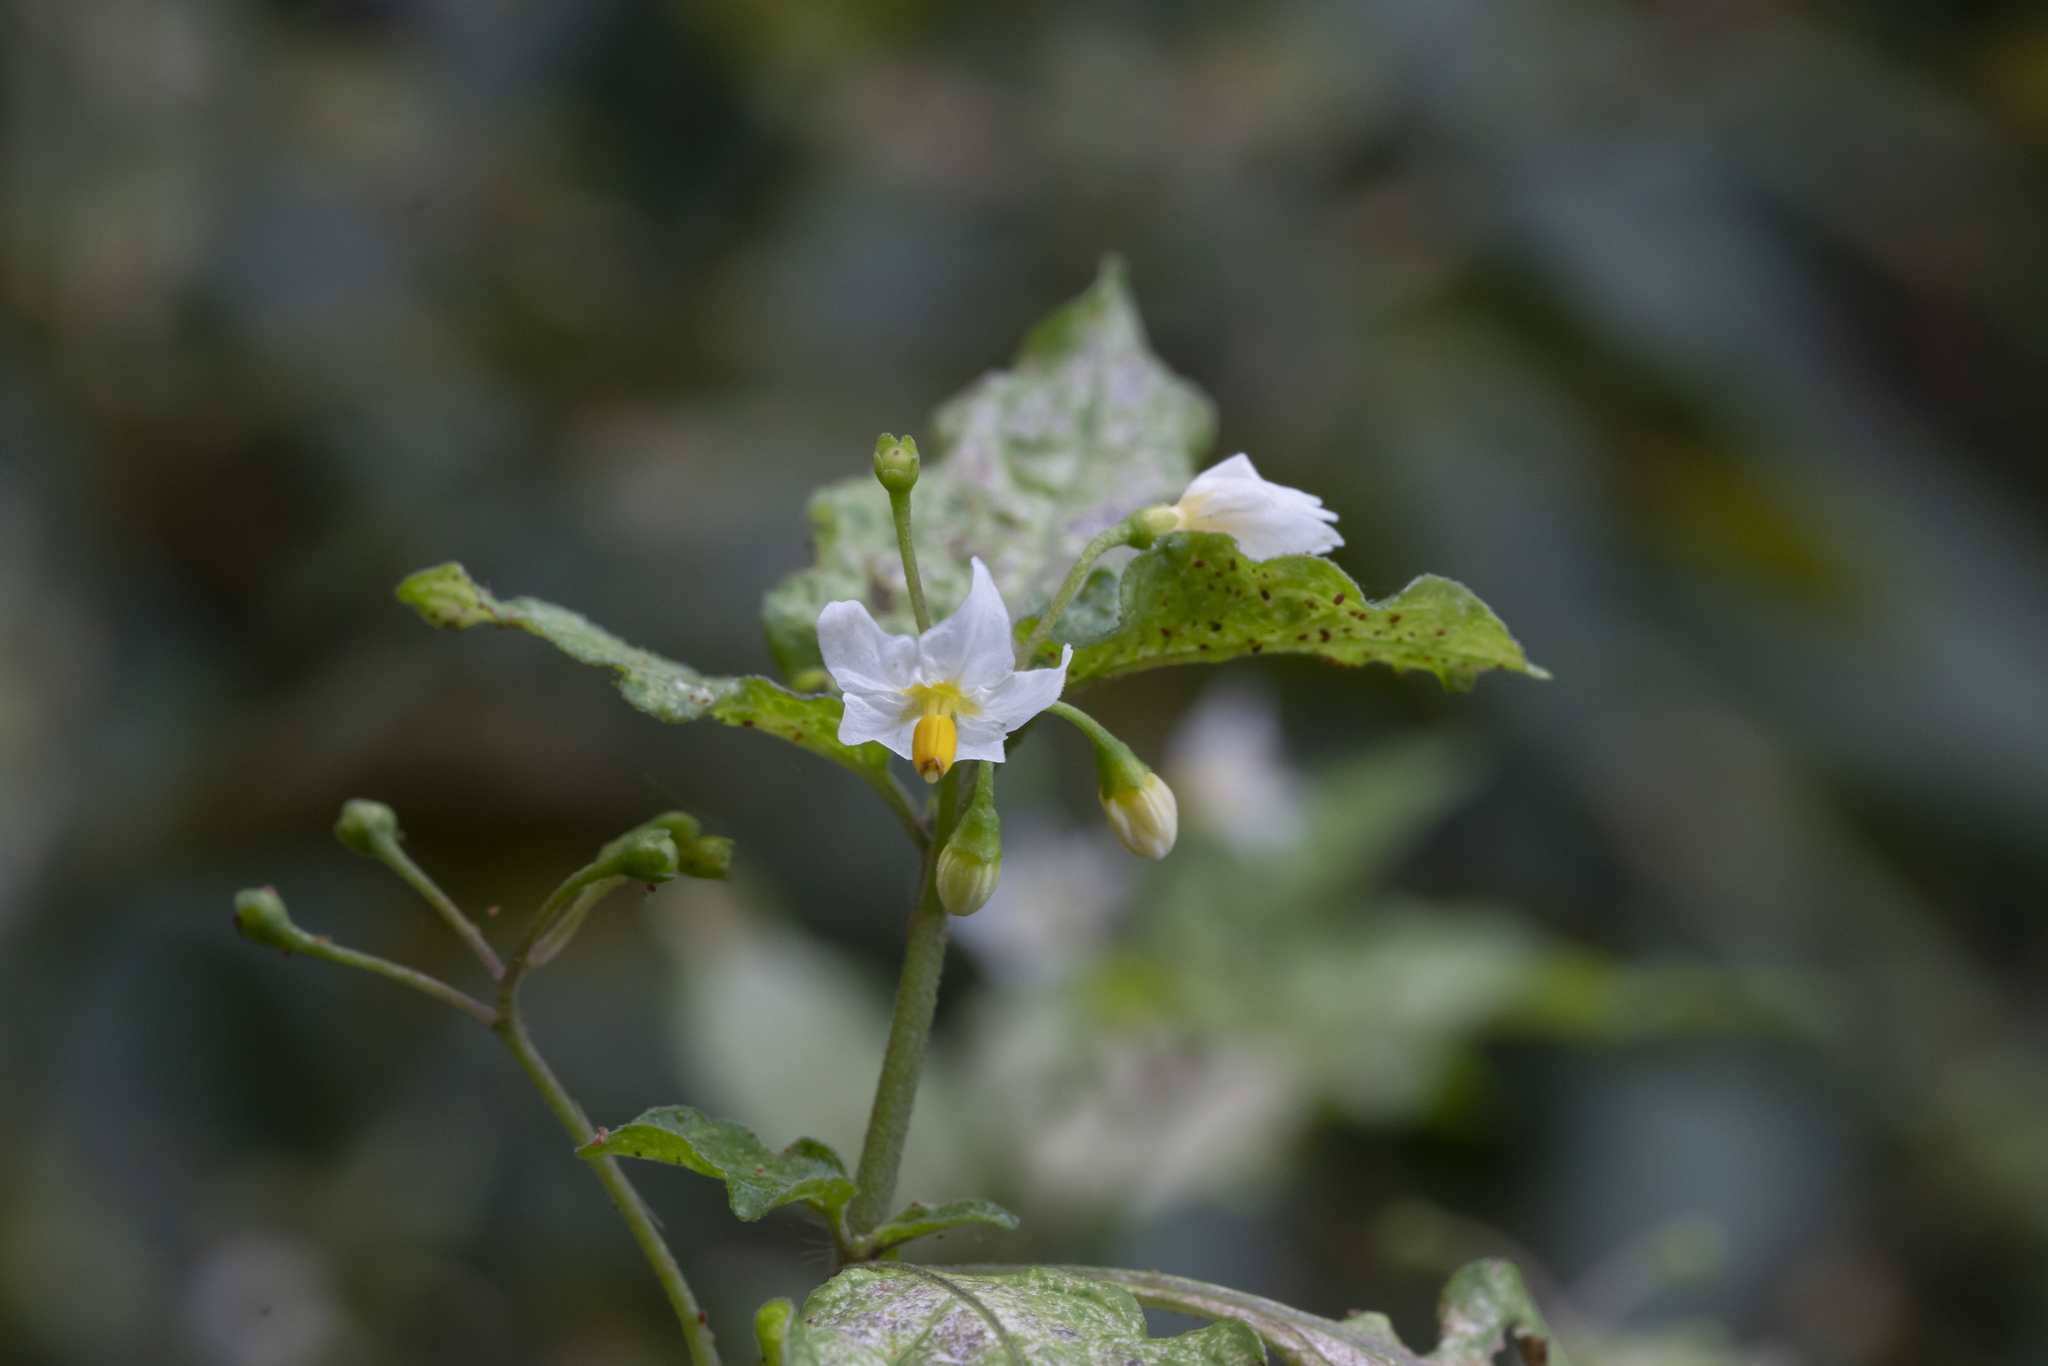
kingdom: Plantae
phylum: Tracheophyta
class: Magnoliopsida
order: Solanales
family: Solanaceae
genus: Solanum
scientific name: Solanum nigrum
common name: Black nightshade
